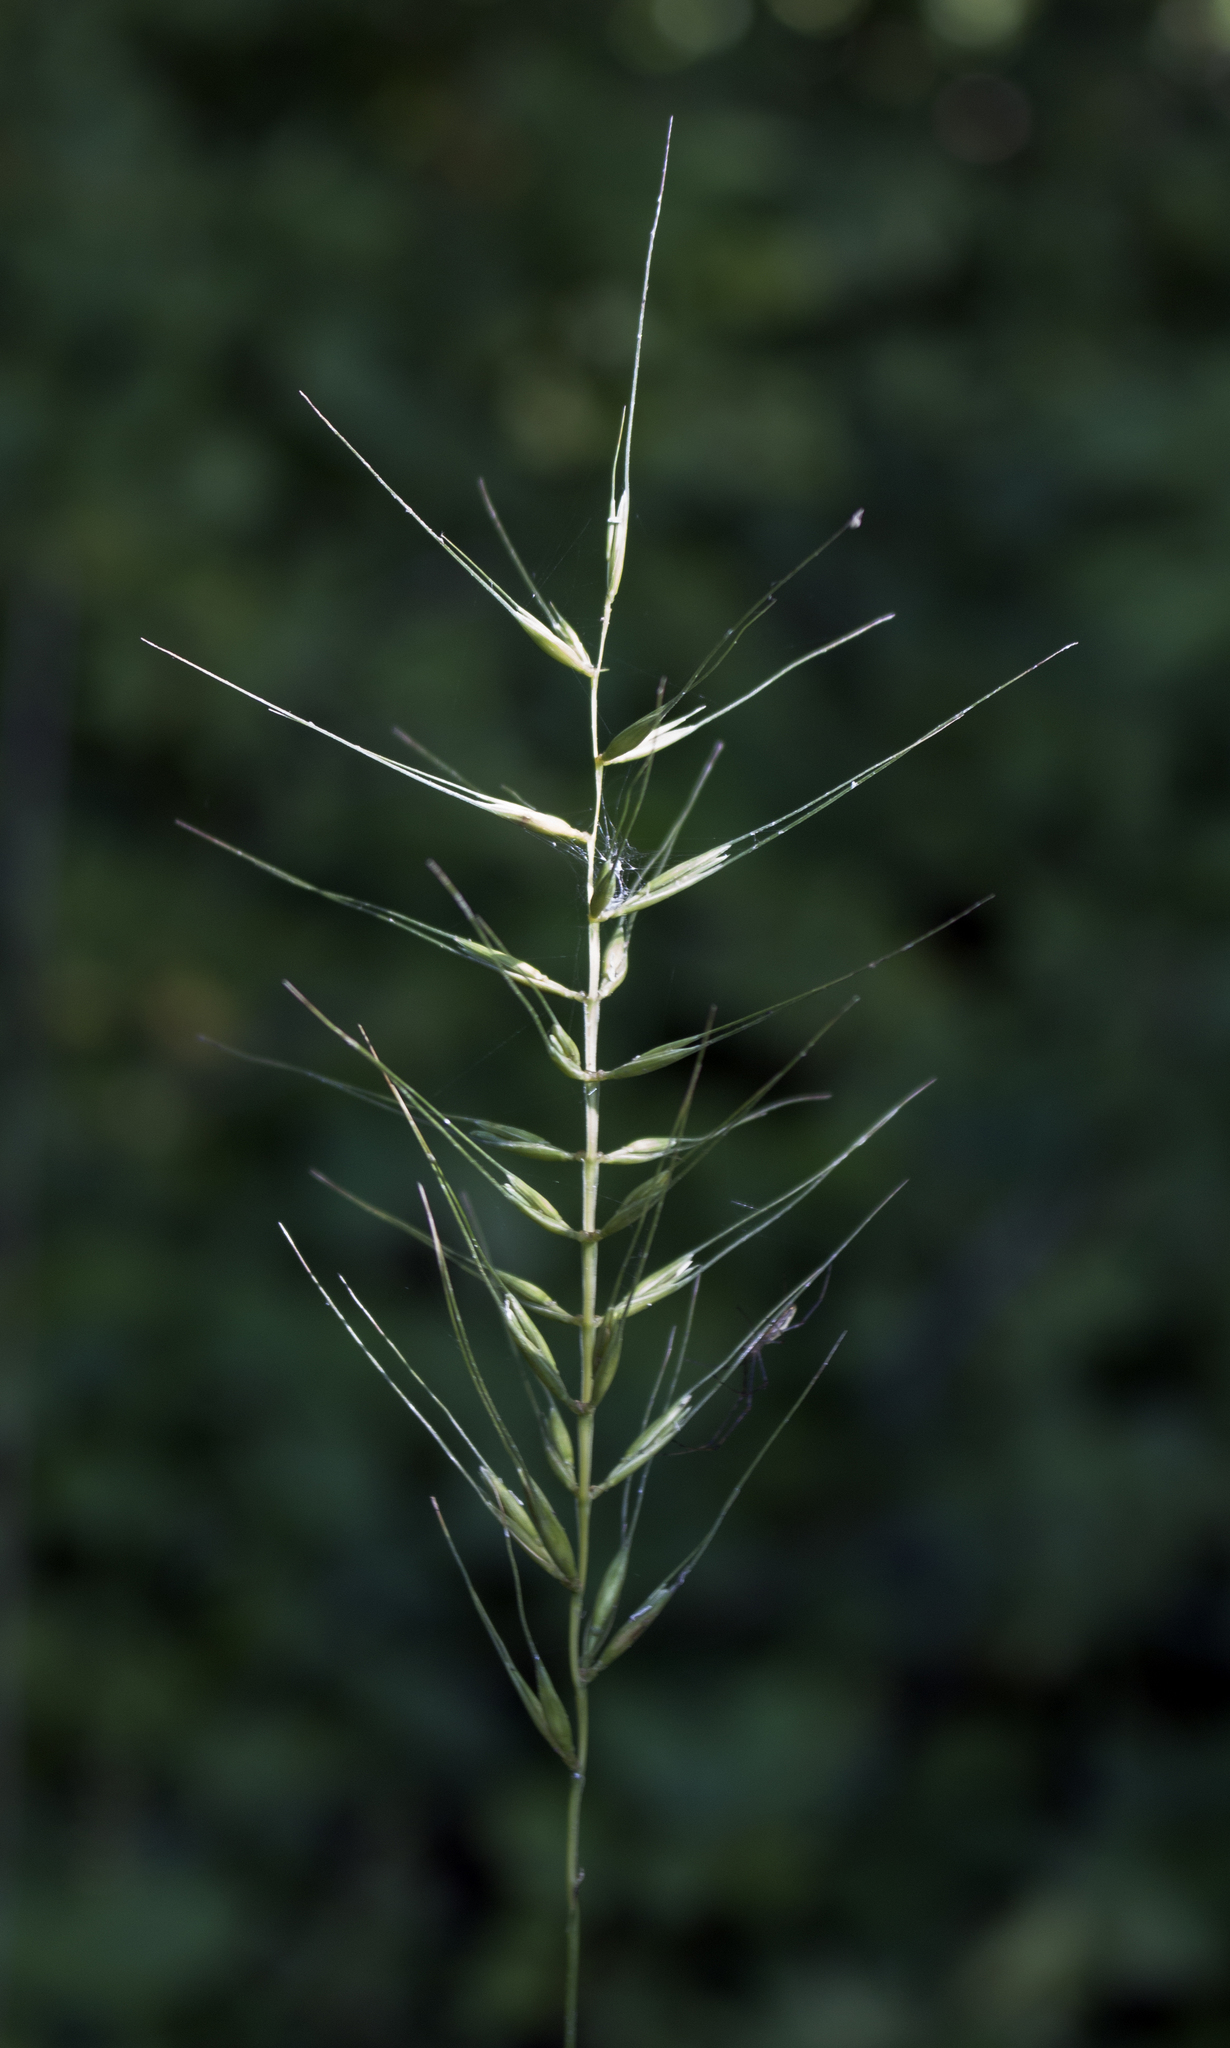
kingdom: Plantae
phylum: Tracheophyta
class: Liliopsida
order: Poales
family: Poaceae
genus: Elymus
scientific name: Elymus hystrix
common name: Bottlebrush grass
